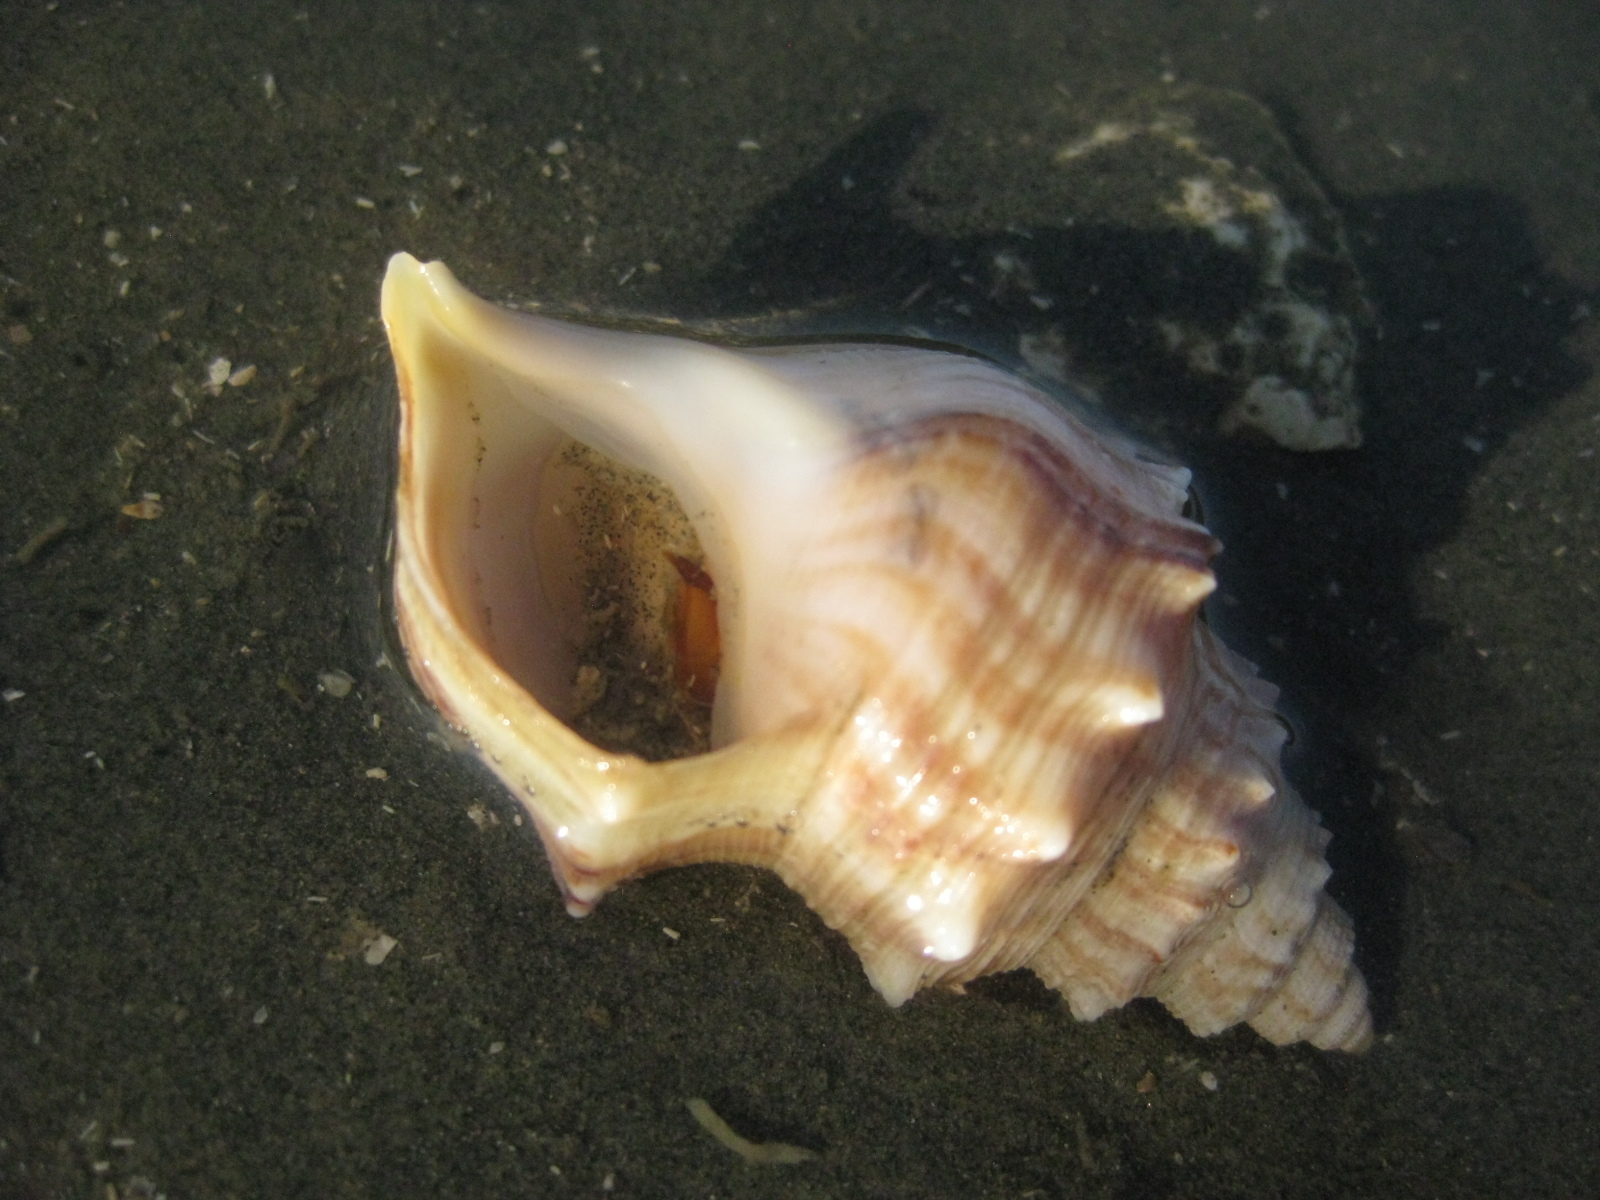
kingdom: Animalia
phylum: Mollusca
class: Gastropoda
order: Littorinimorpha
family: Struthiolariidae
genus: Struthiolaria
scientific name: Struthiolaria papulosa
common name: Large ostrich foot
